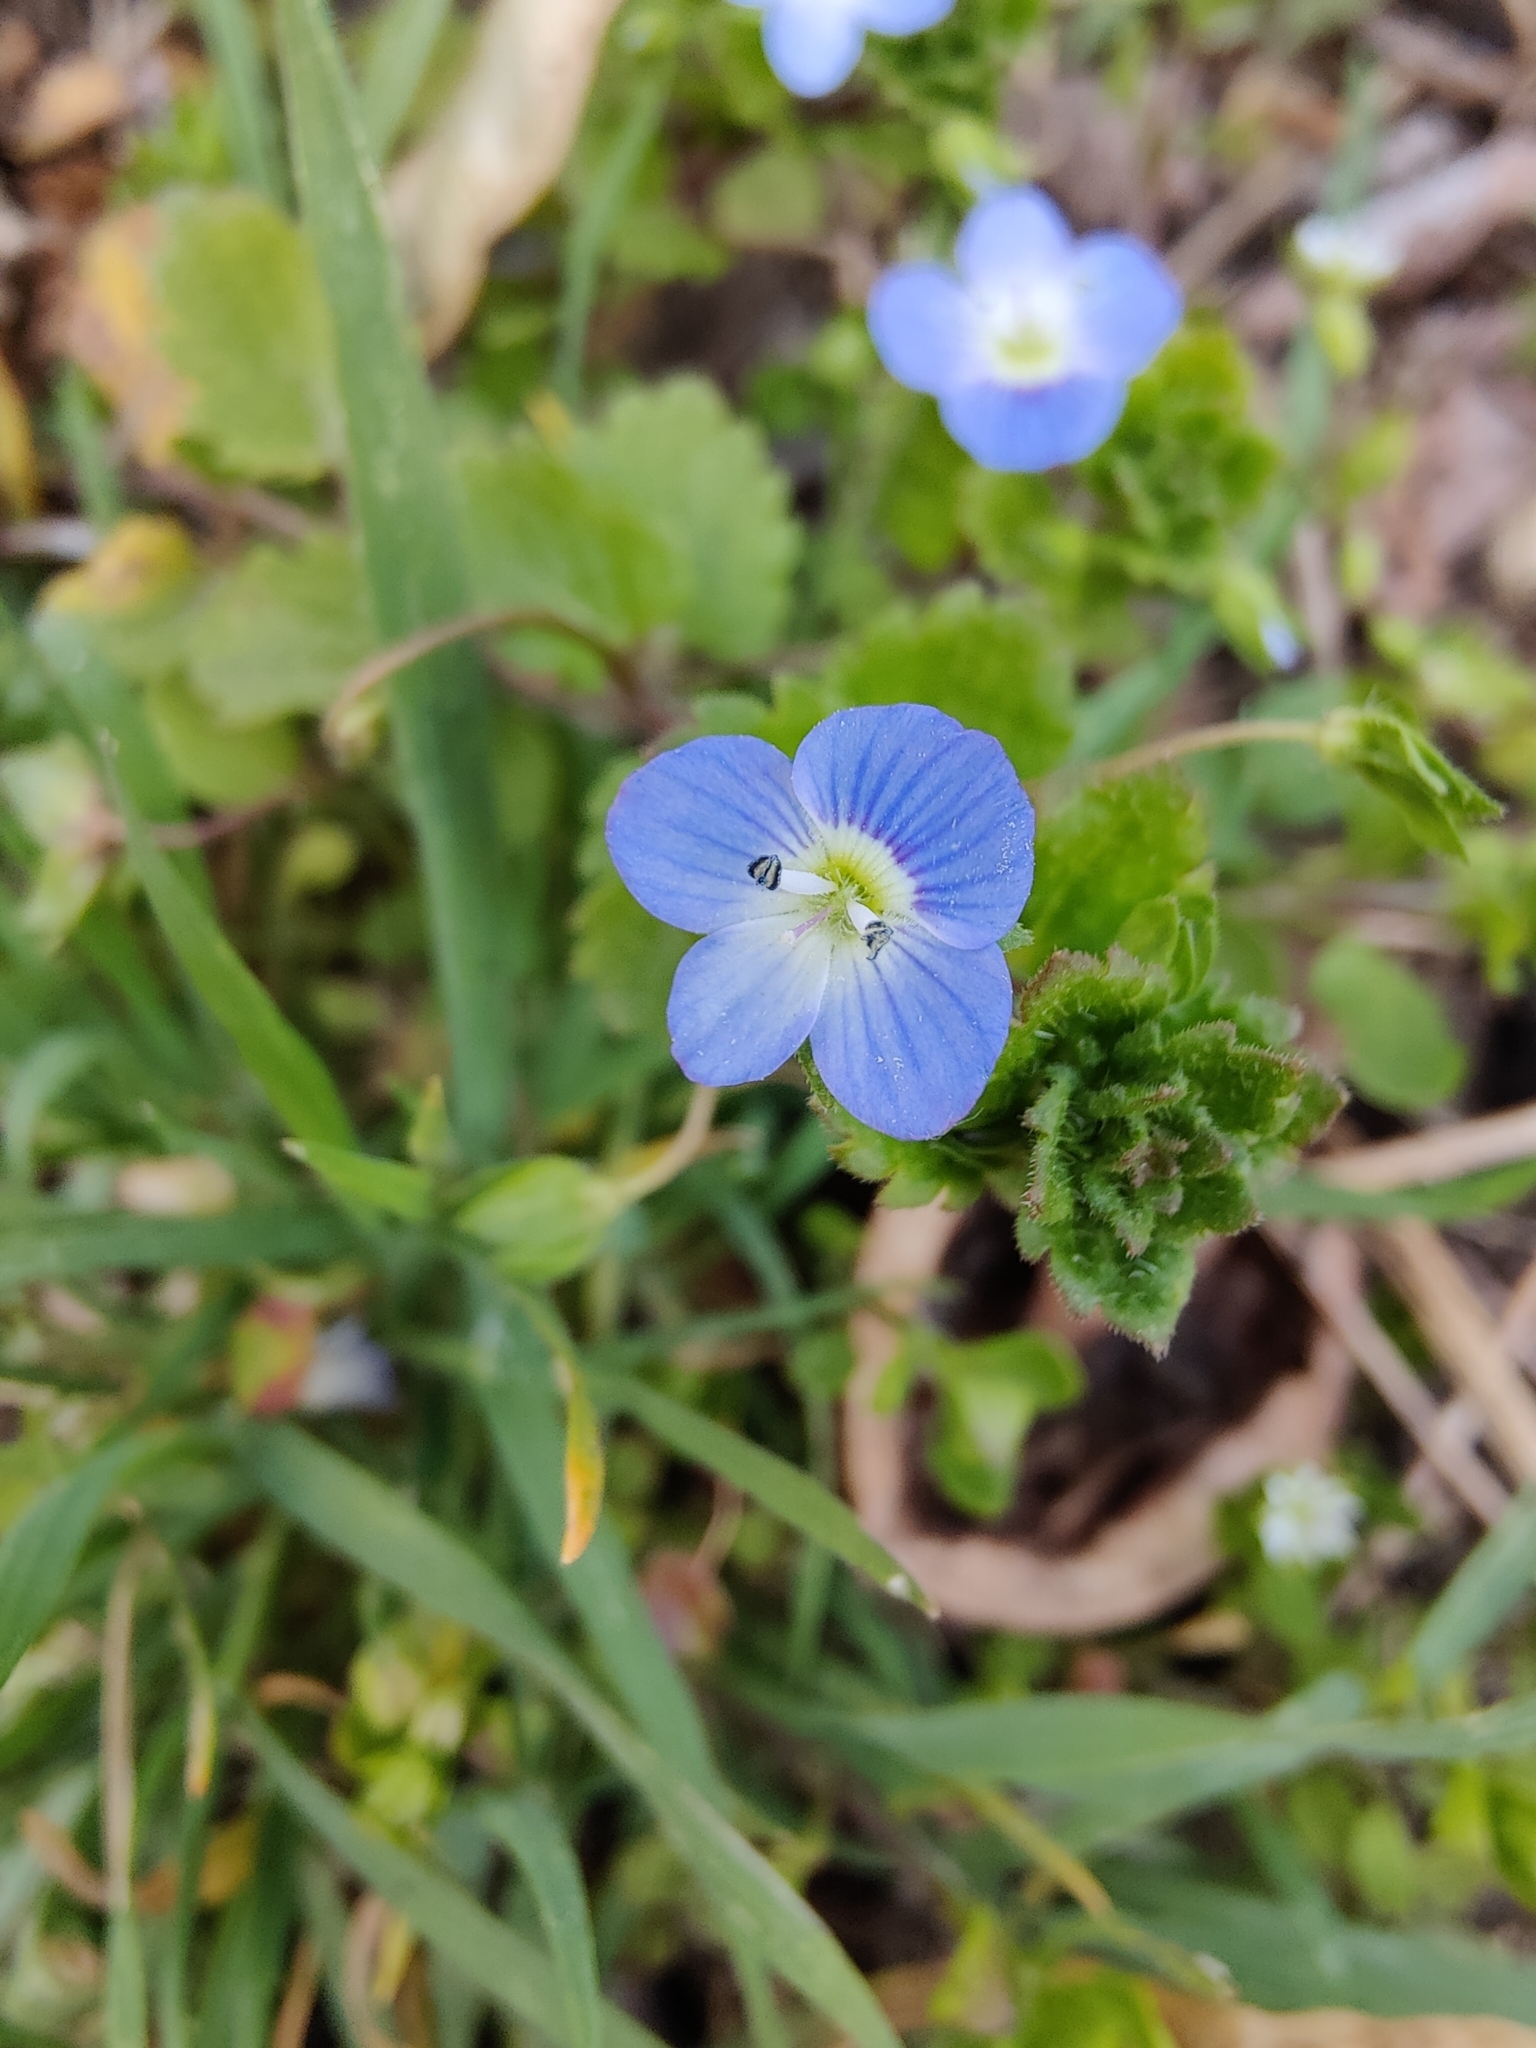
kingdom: Plantae
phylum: Tracheophyta
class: Magnoliopsida
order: Lamiales
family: Plantaginaceae
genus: Veronica
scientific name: Veronica persica
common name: Common field-speedwell
